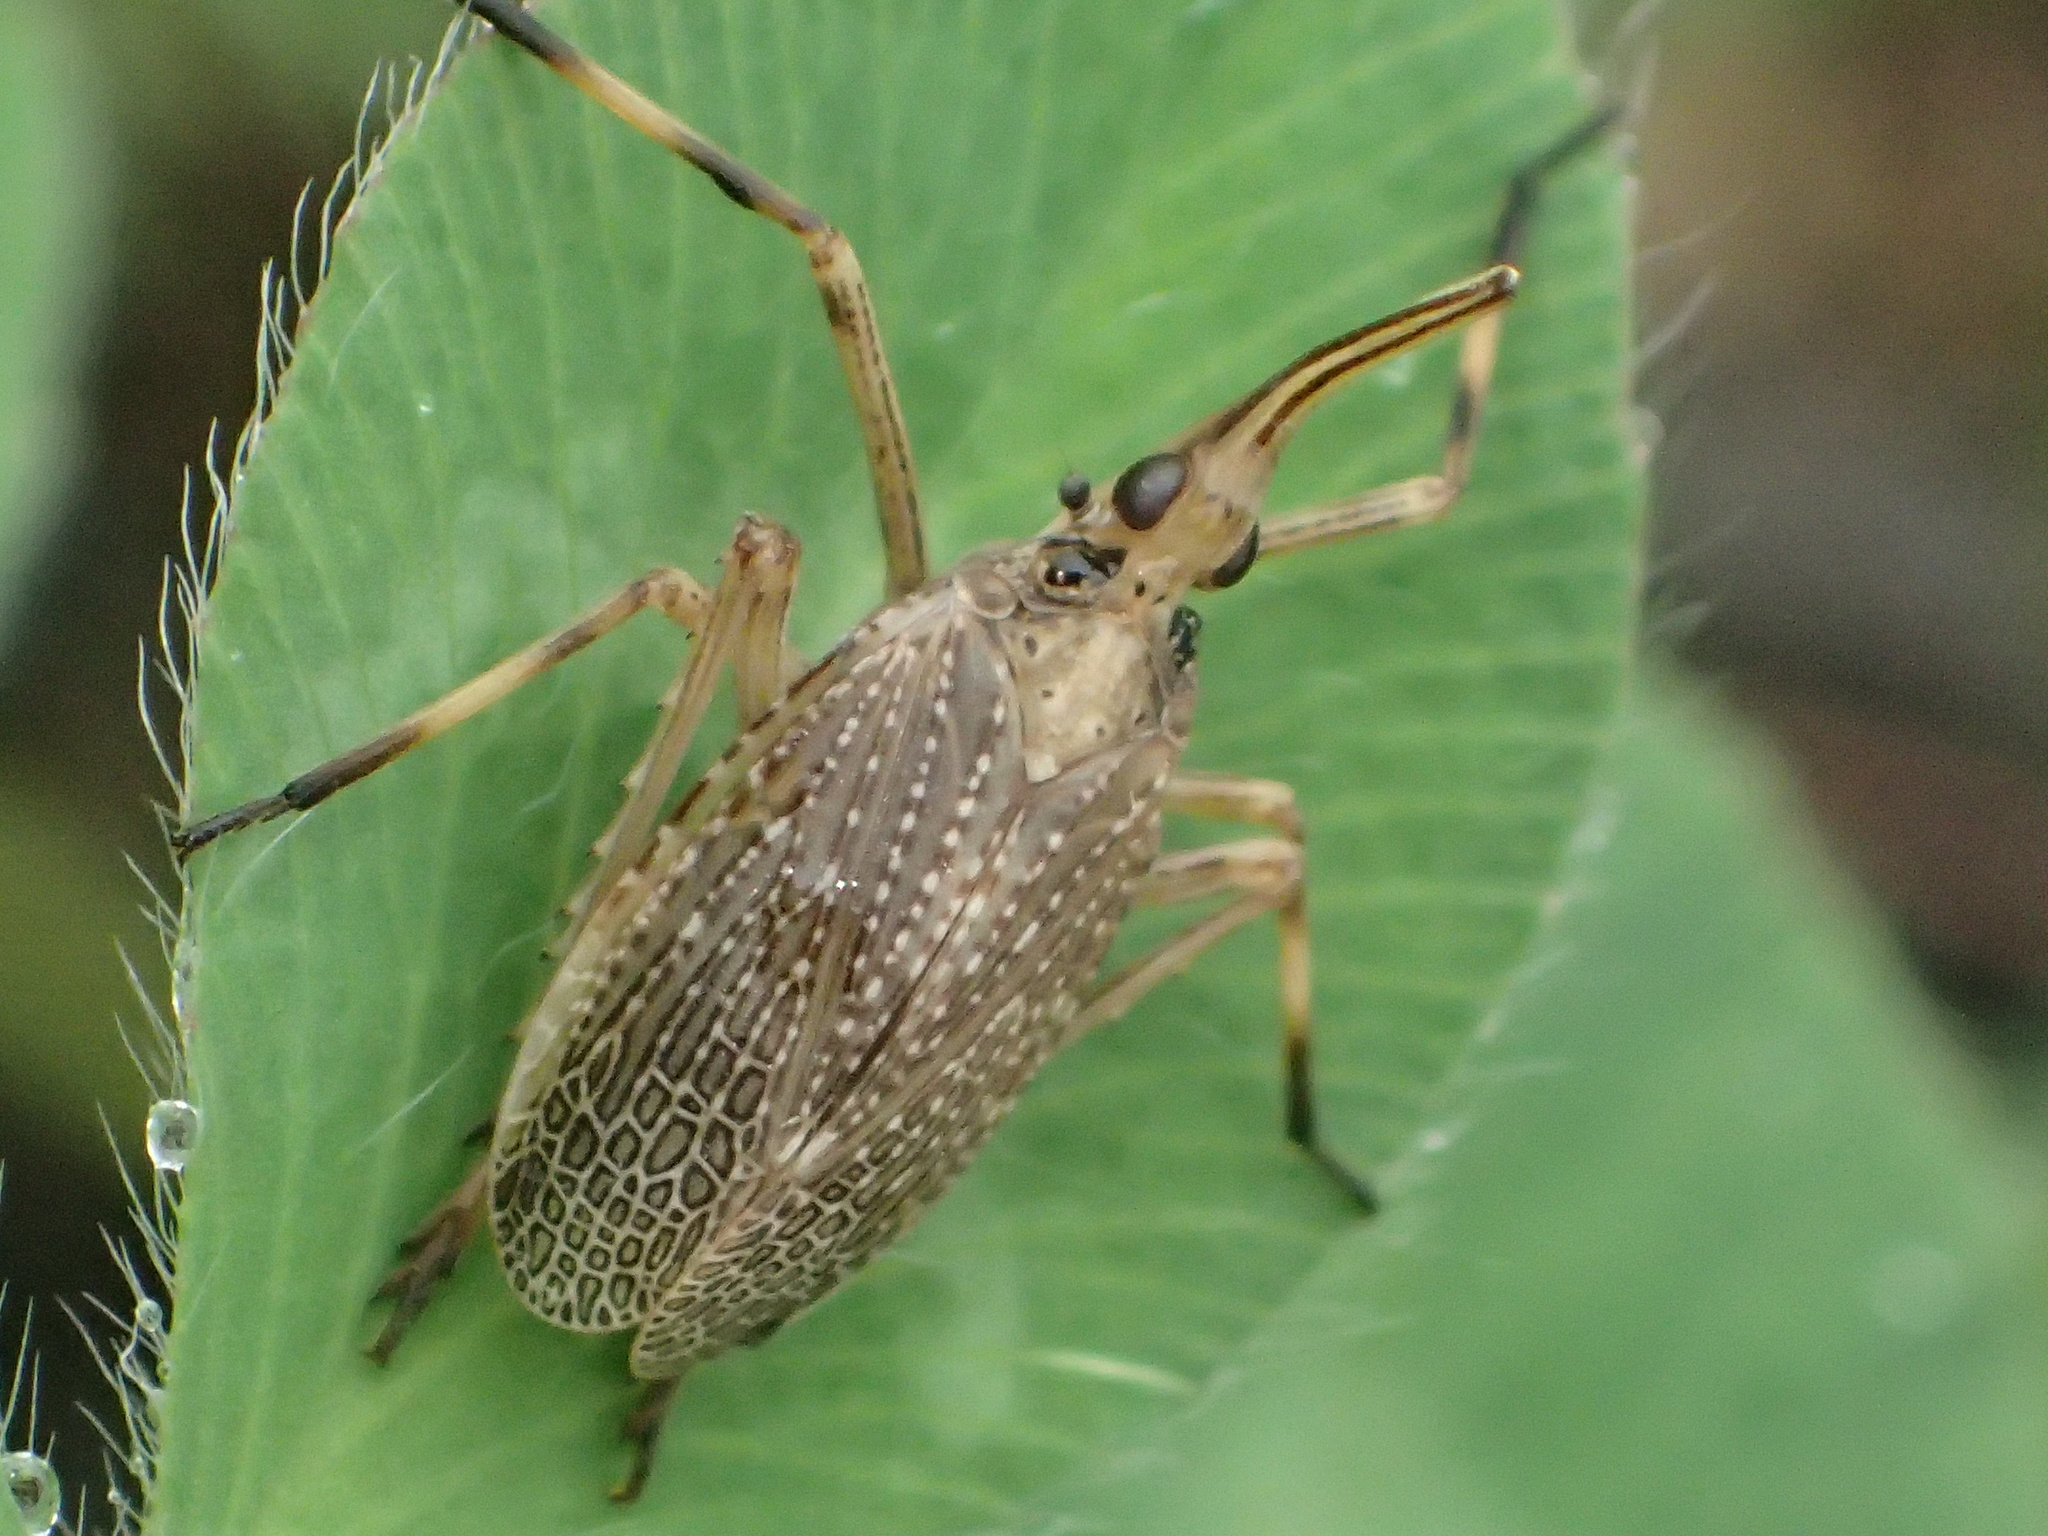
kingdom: Animalia
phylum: Arthropoda
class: Insecta
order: Hemiptera
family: Dictyopharidae
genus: Scolops
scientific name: Scolops sulcipes
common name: Partridge planthopper
